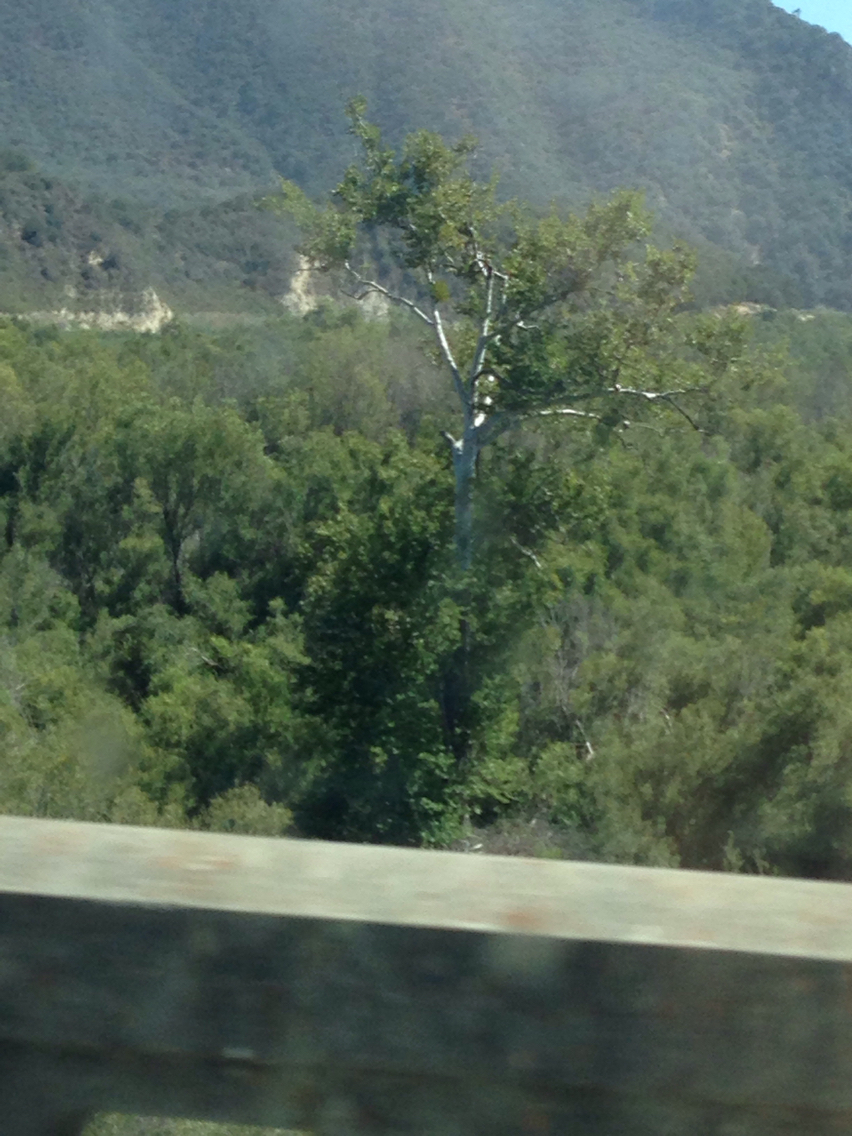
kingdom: Plantae
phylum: Tracheophyta
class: Magnoliopsida
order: Proteales
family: Platanaceae
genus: Platanus
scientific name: Platanus racemosa
